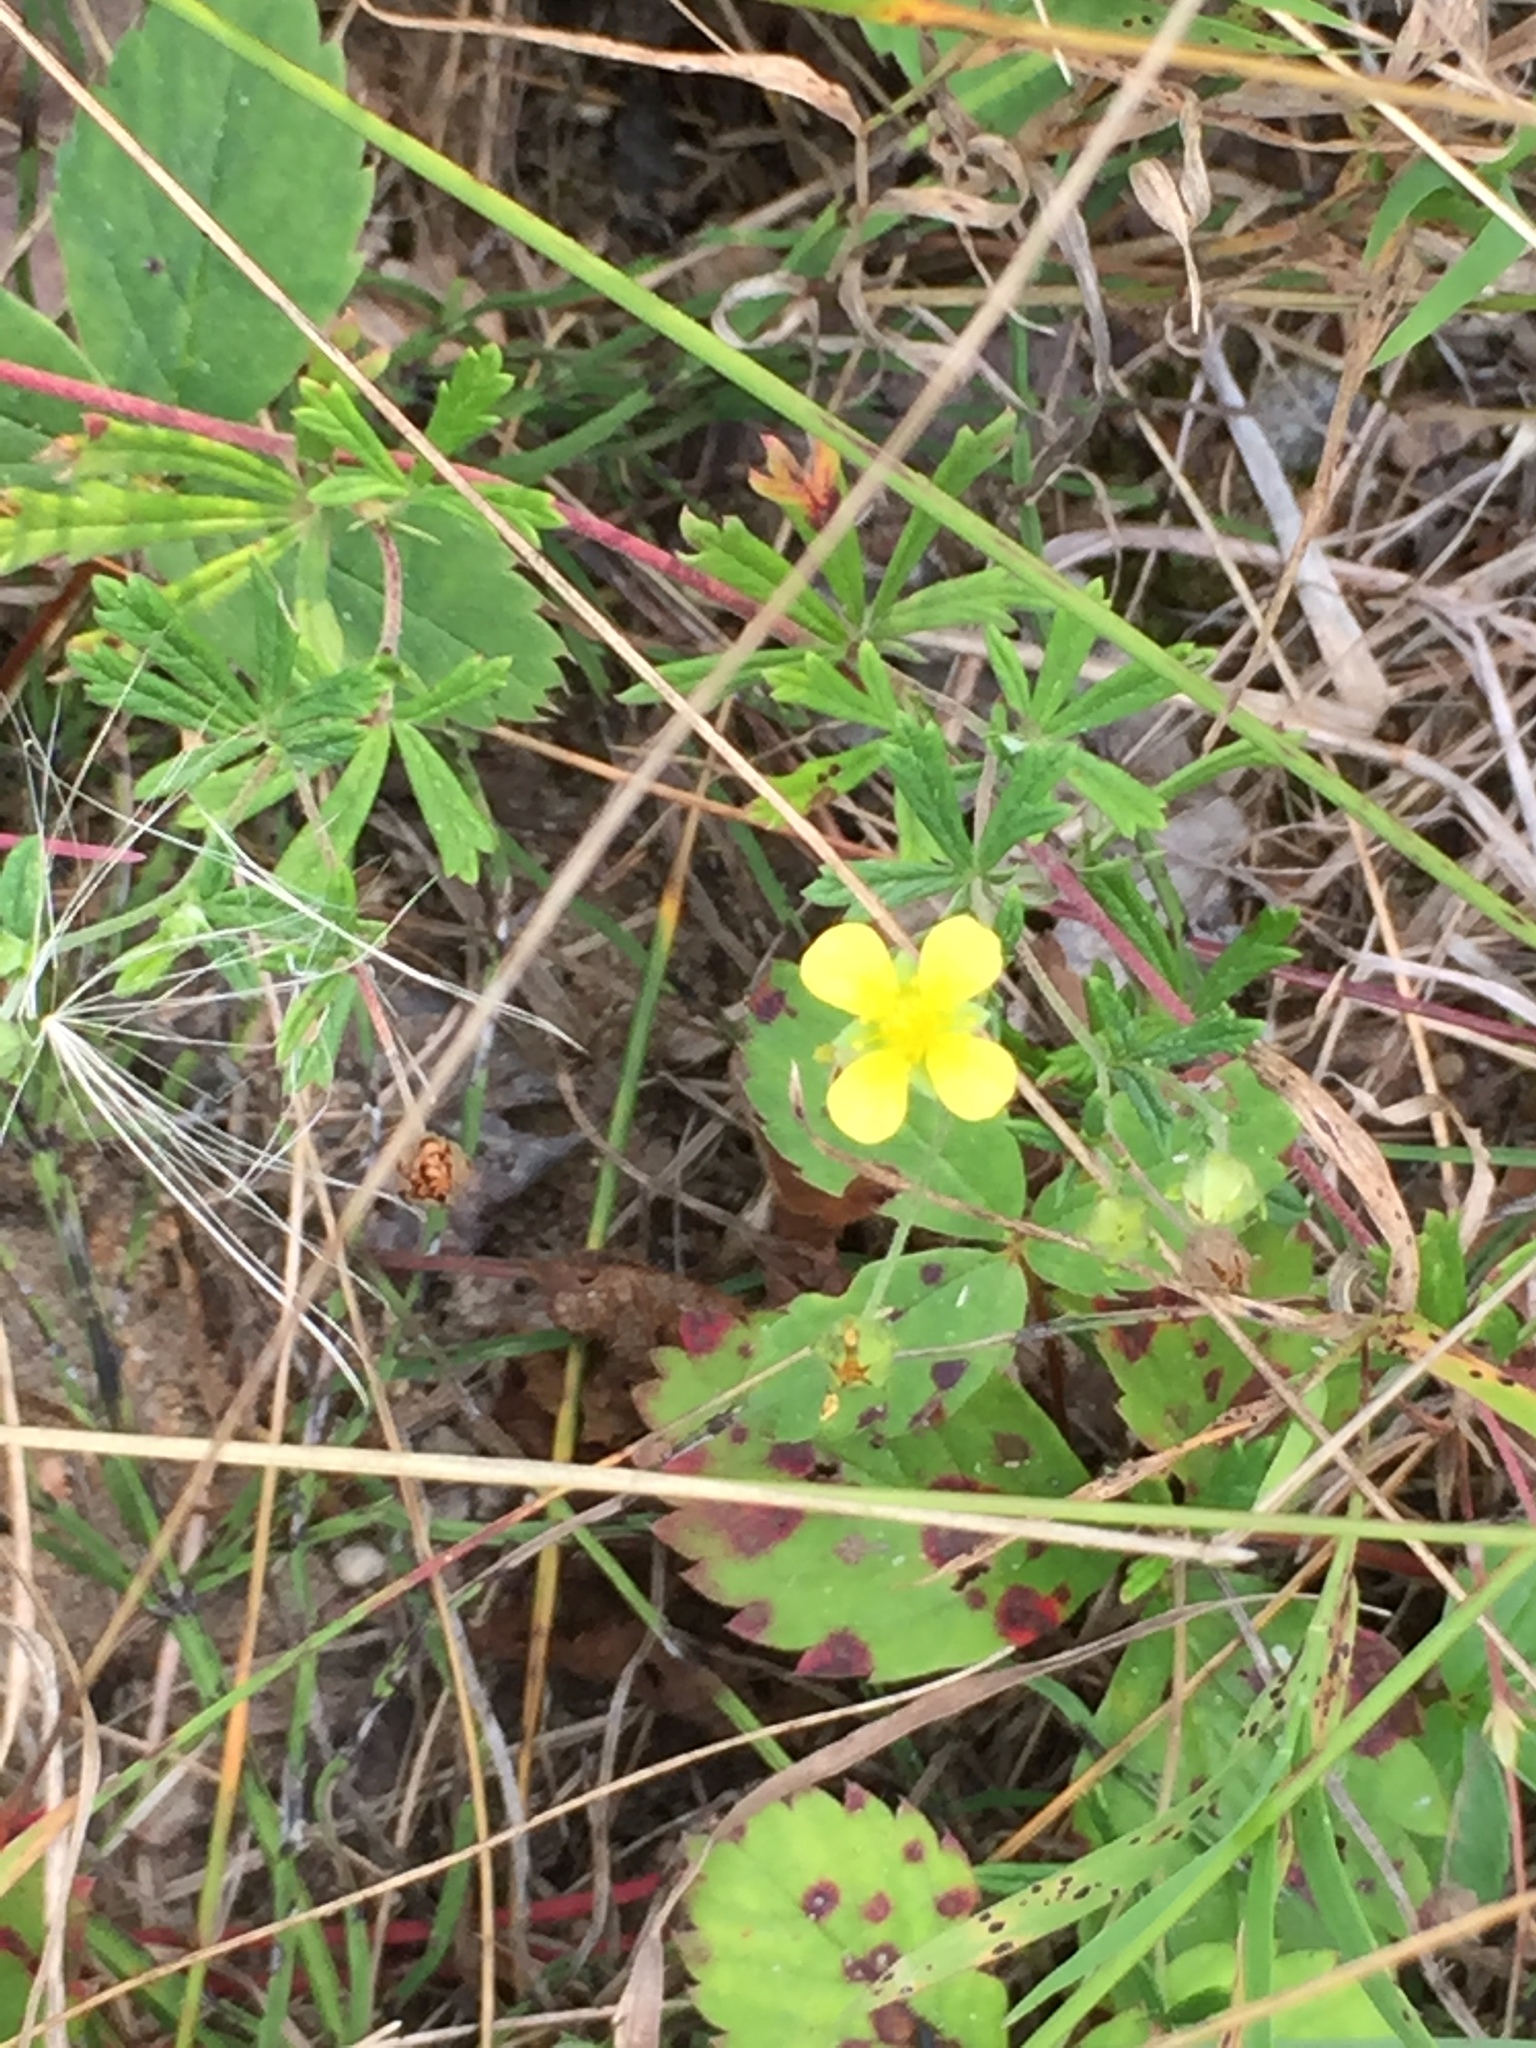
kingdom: Plantae
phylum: Tracheophyta
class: Magnoliopsida
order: Rosales
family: Rosaceae
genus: Potentilla
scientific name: Potentilla argentea
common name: Hoary cinquefoil
